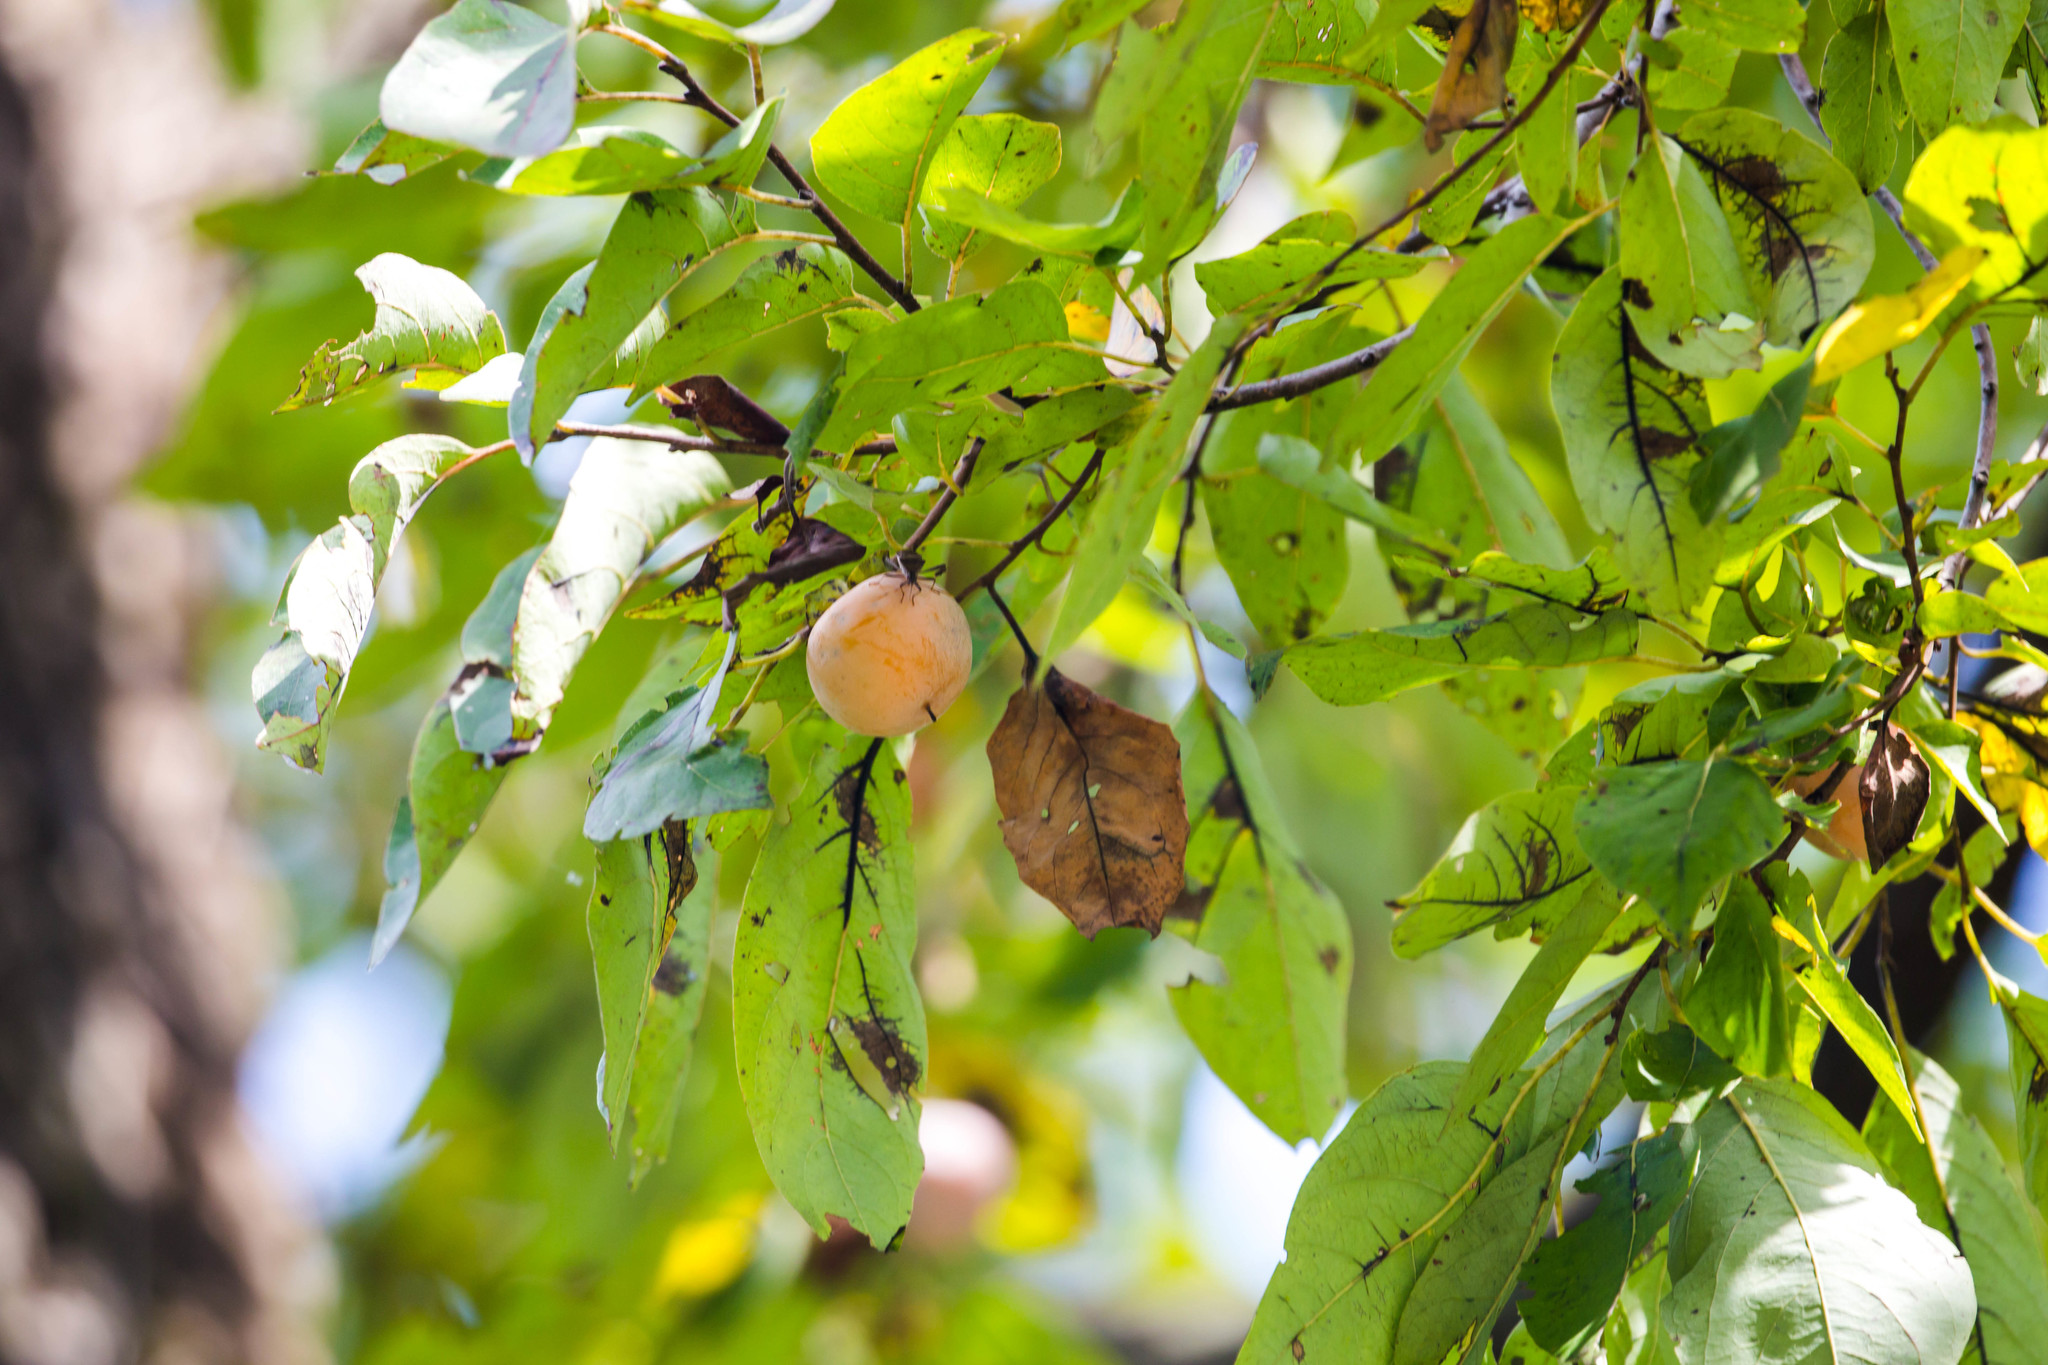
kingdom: Plantae
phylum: Tracheophyta
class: Magnoliopsida
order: Ericales
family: Ebenaceae
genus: Diospyros
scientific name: Diospyros virginiana
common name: Persimmon
